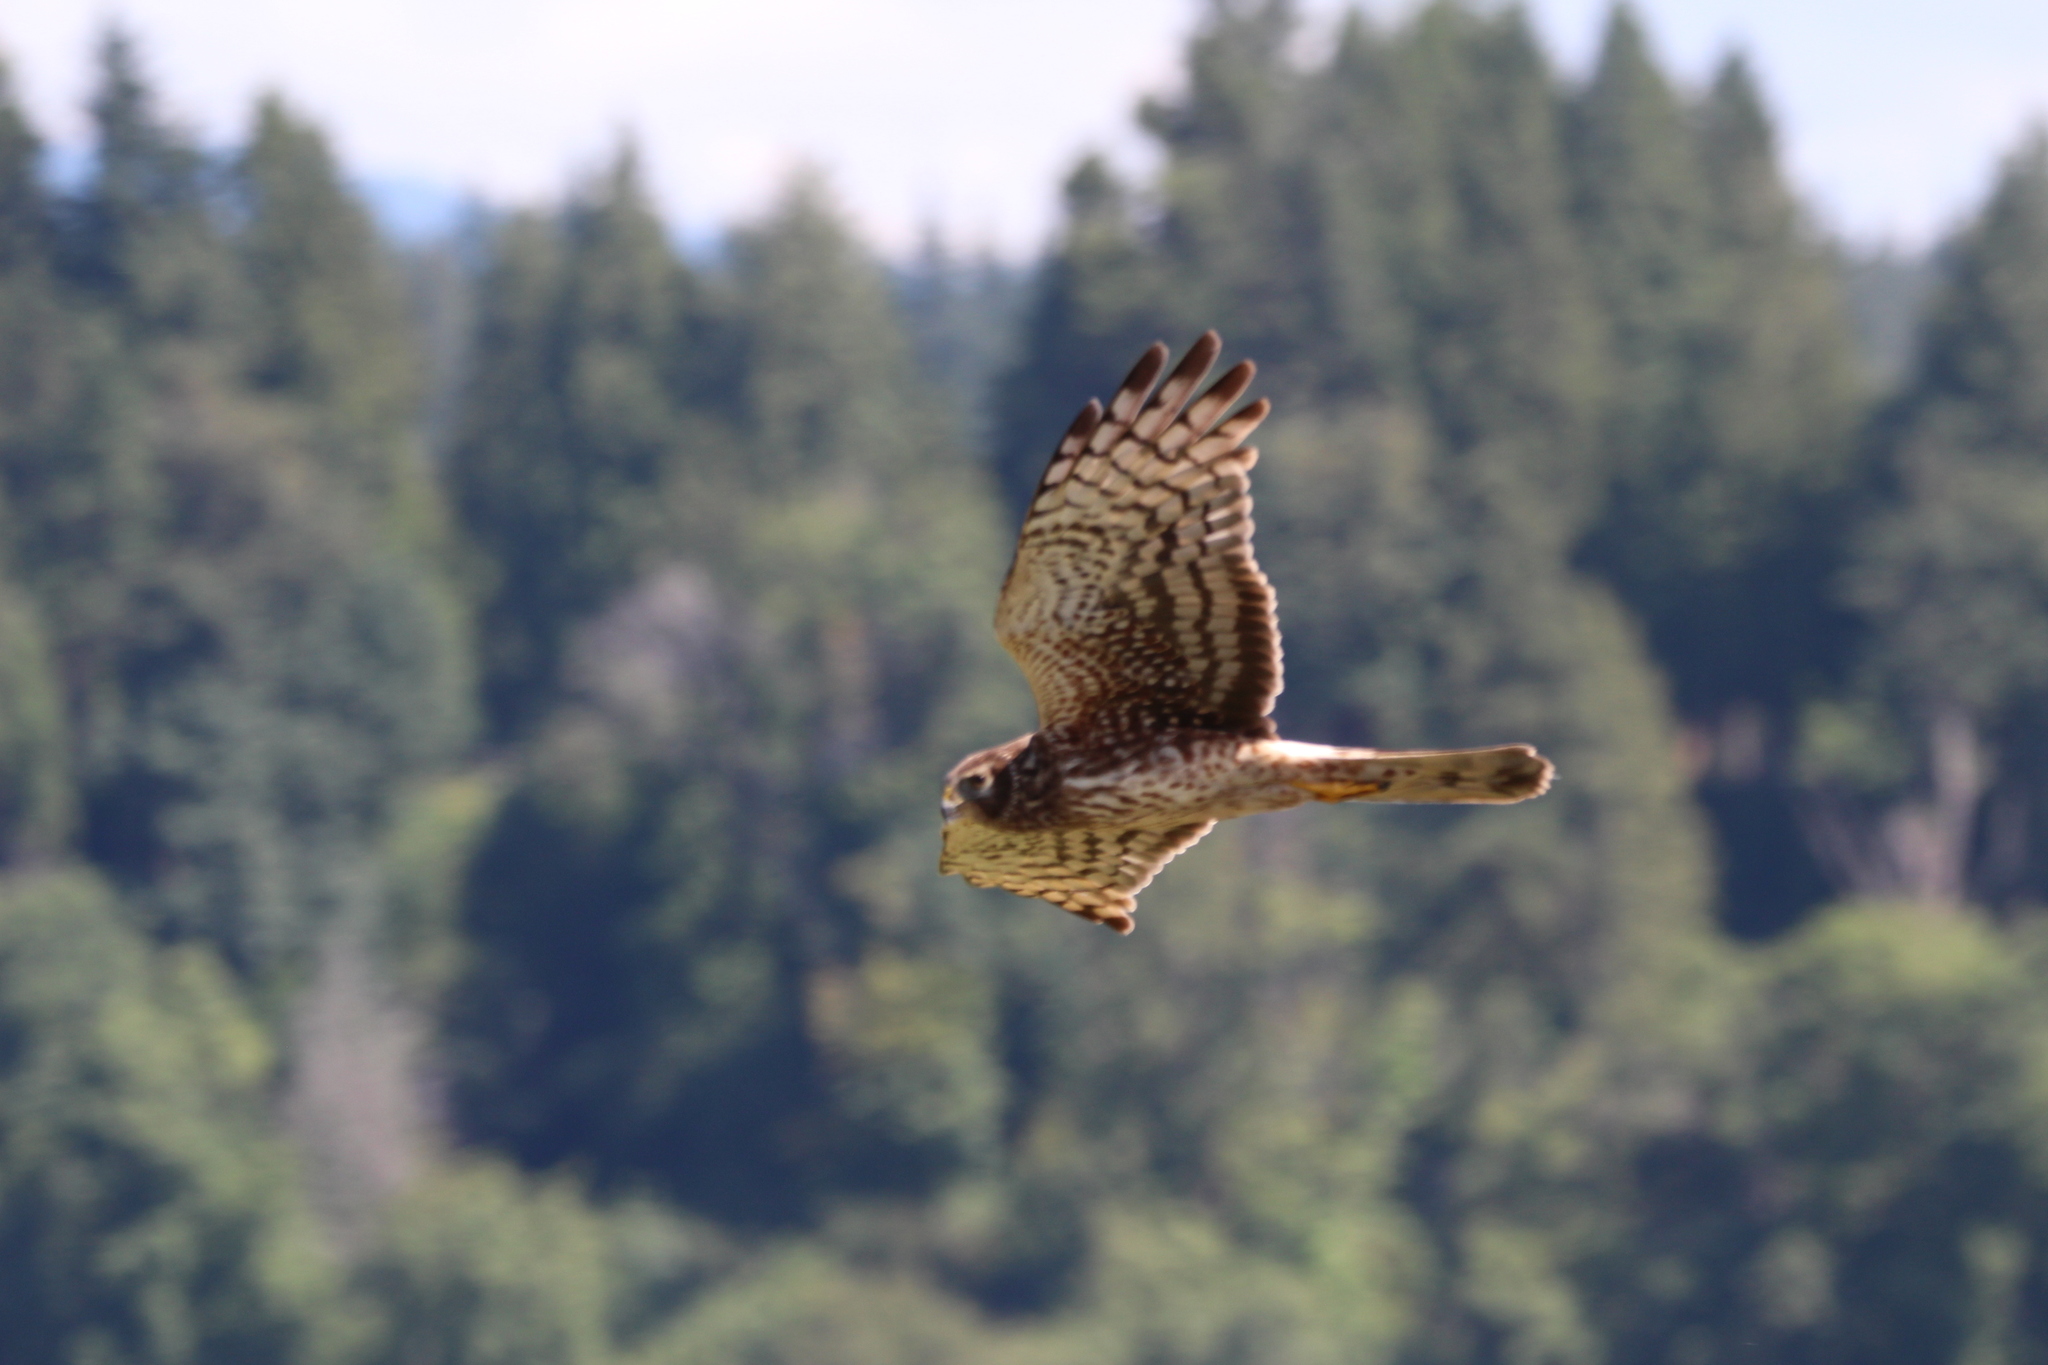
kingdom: Animalia
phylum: Chordata
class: Aves
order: Accipitriformes
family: Accipitridae
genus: Circus
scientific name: Circus cyaneus
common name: Hen harrier
